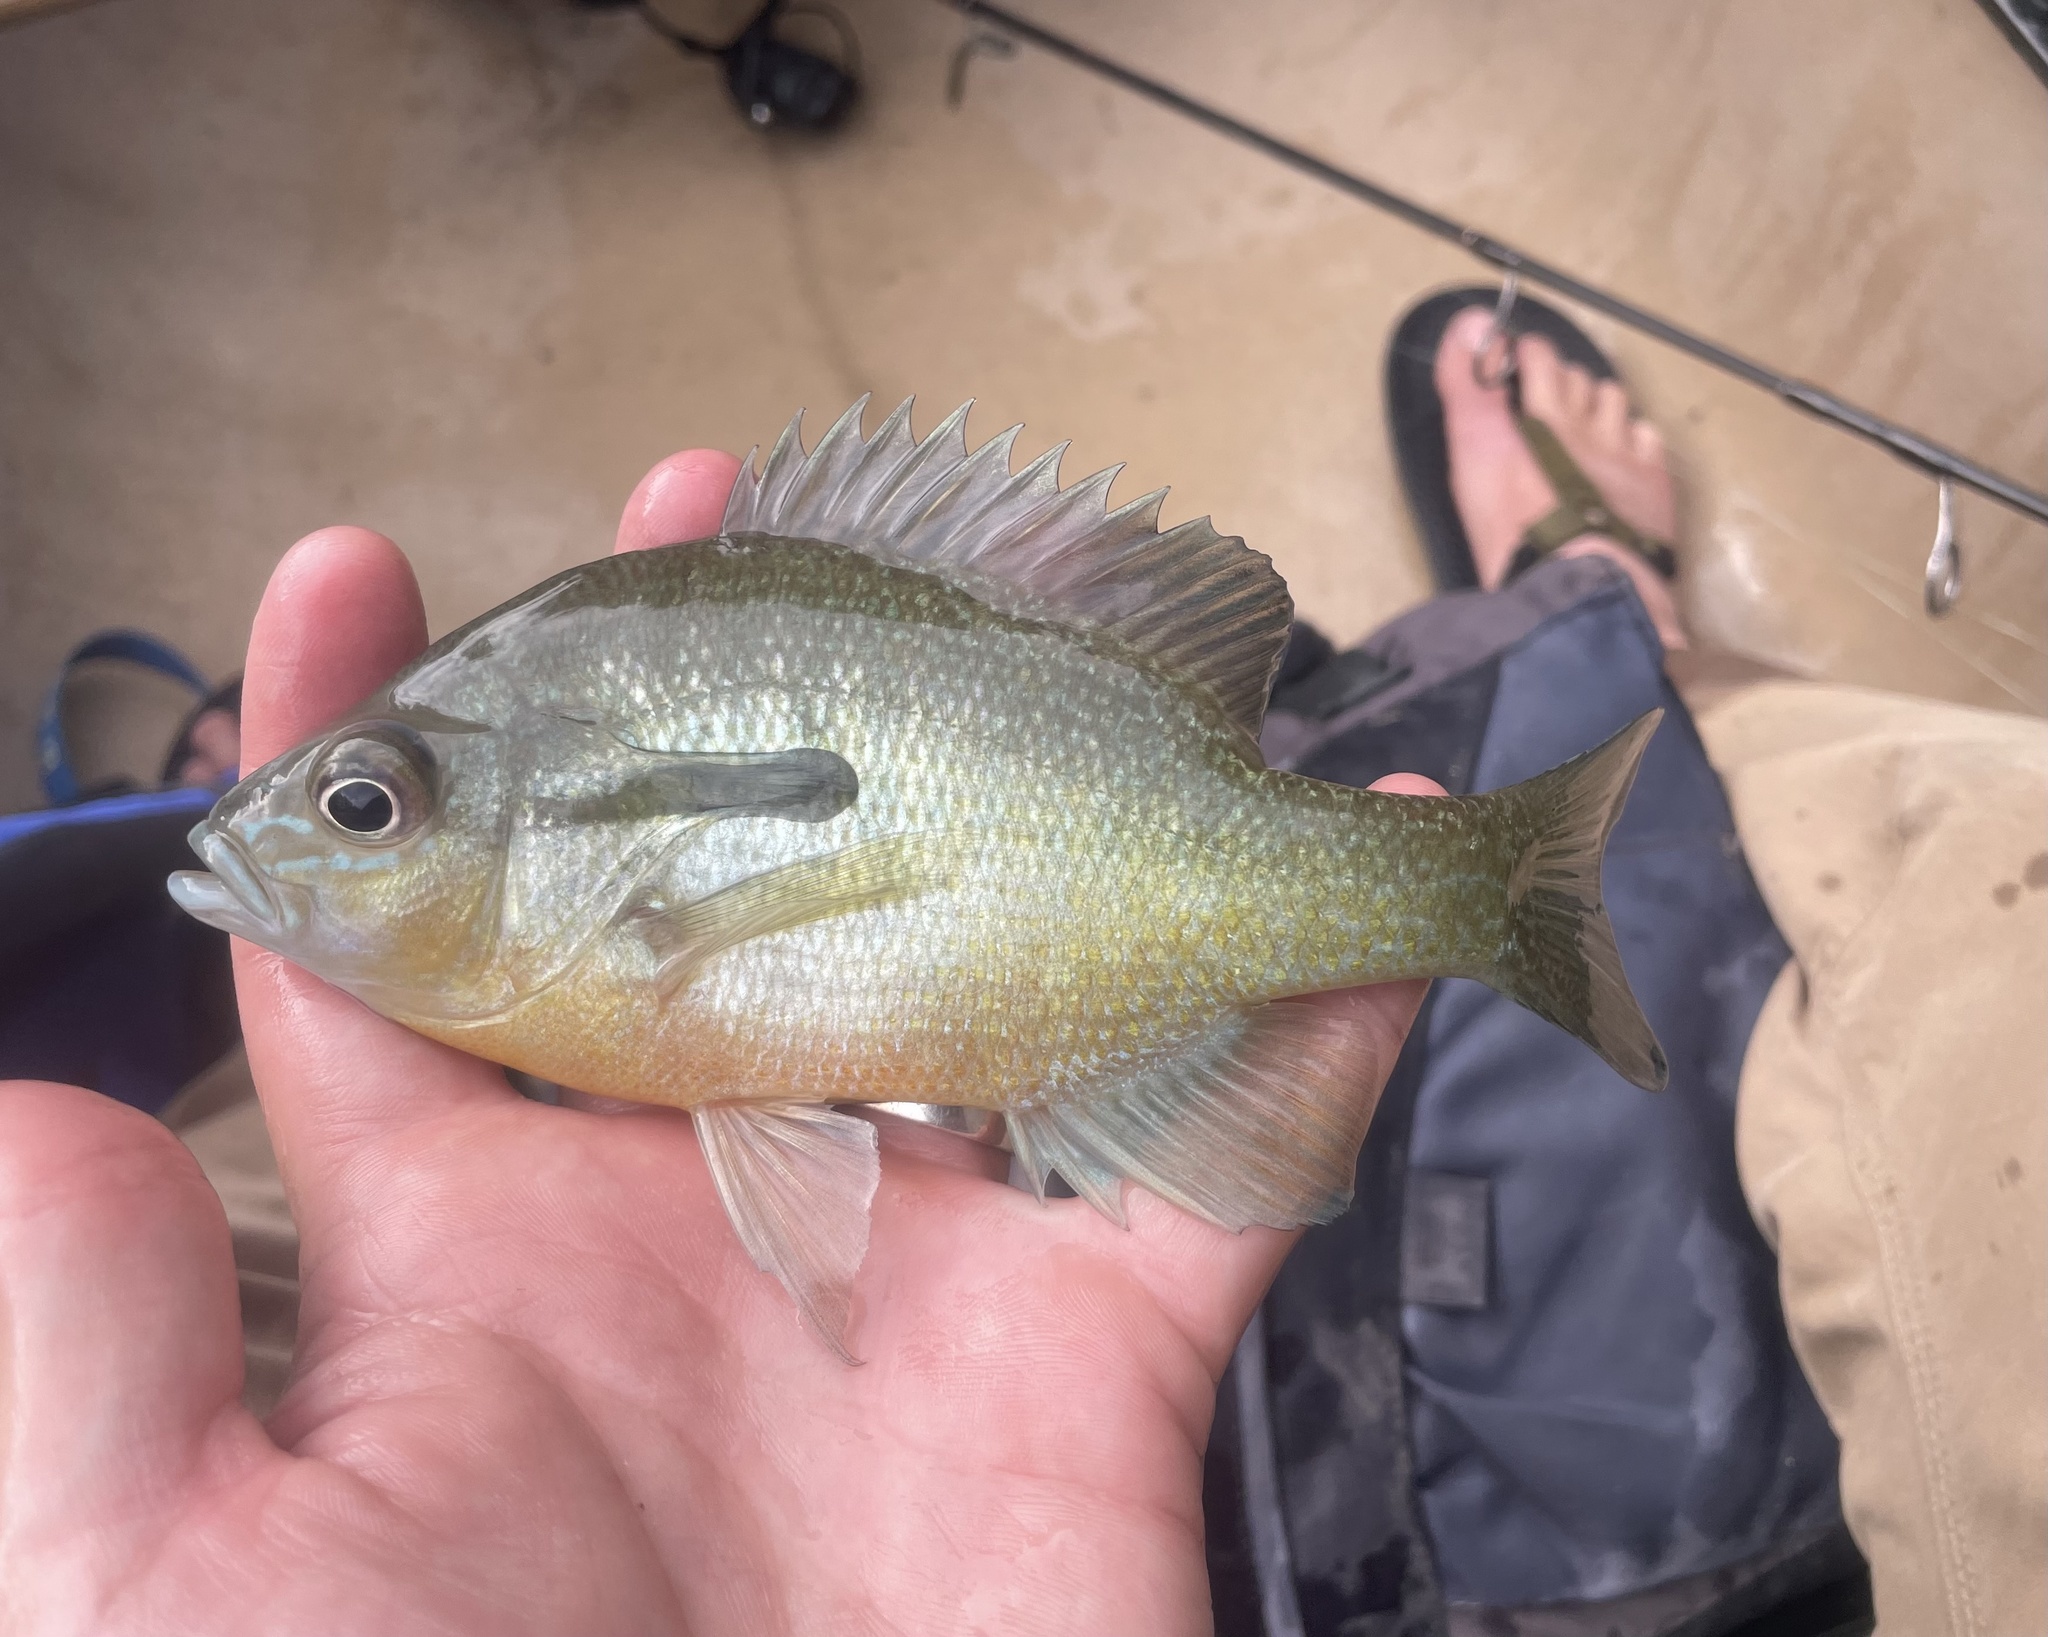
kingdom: Animalia
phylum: Chordata
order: Perciformes
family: Centrarchidae
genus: Lepomis
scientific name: Lepomis auritus
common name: Redbreast sunfish
